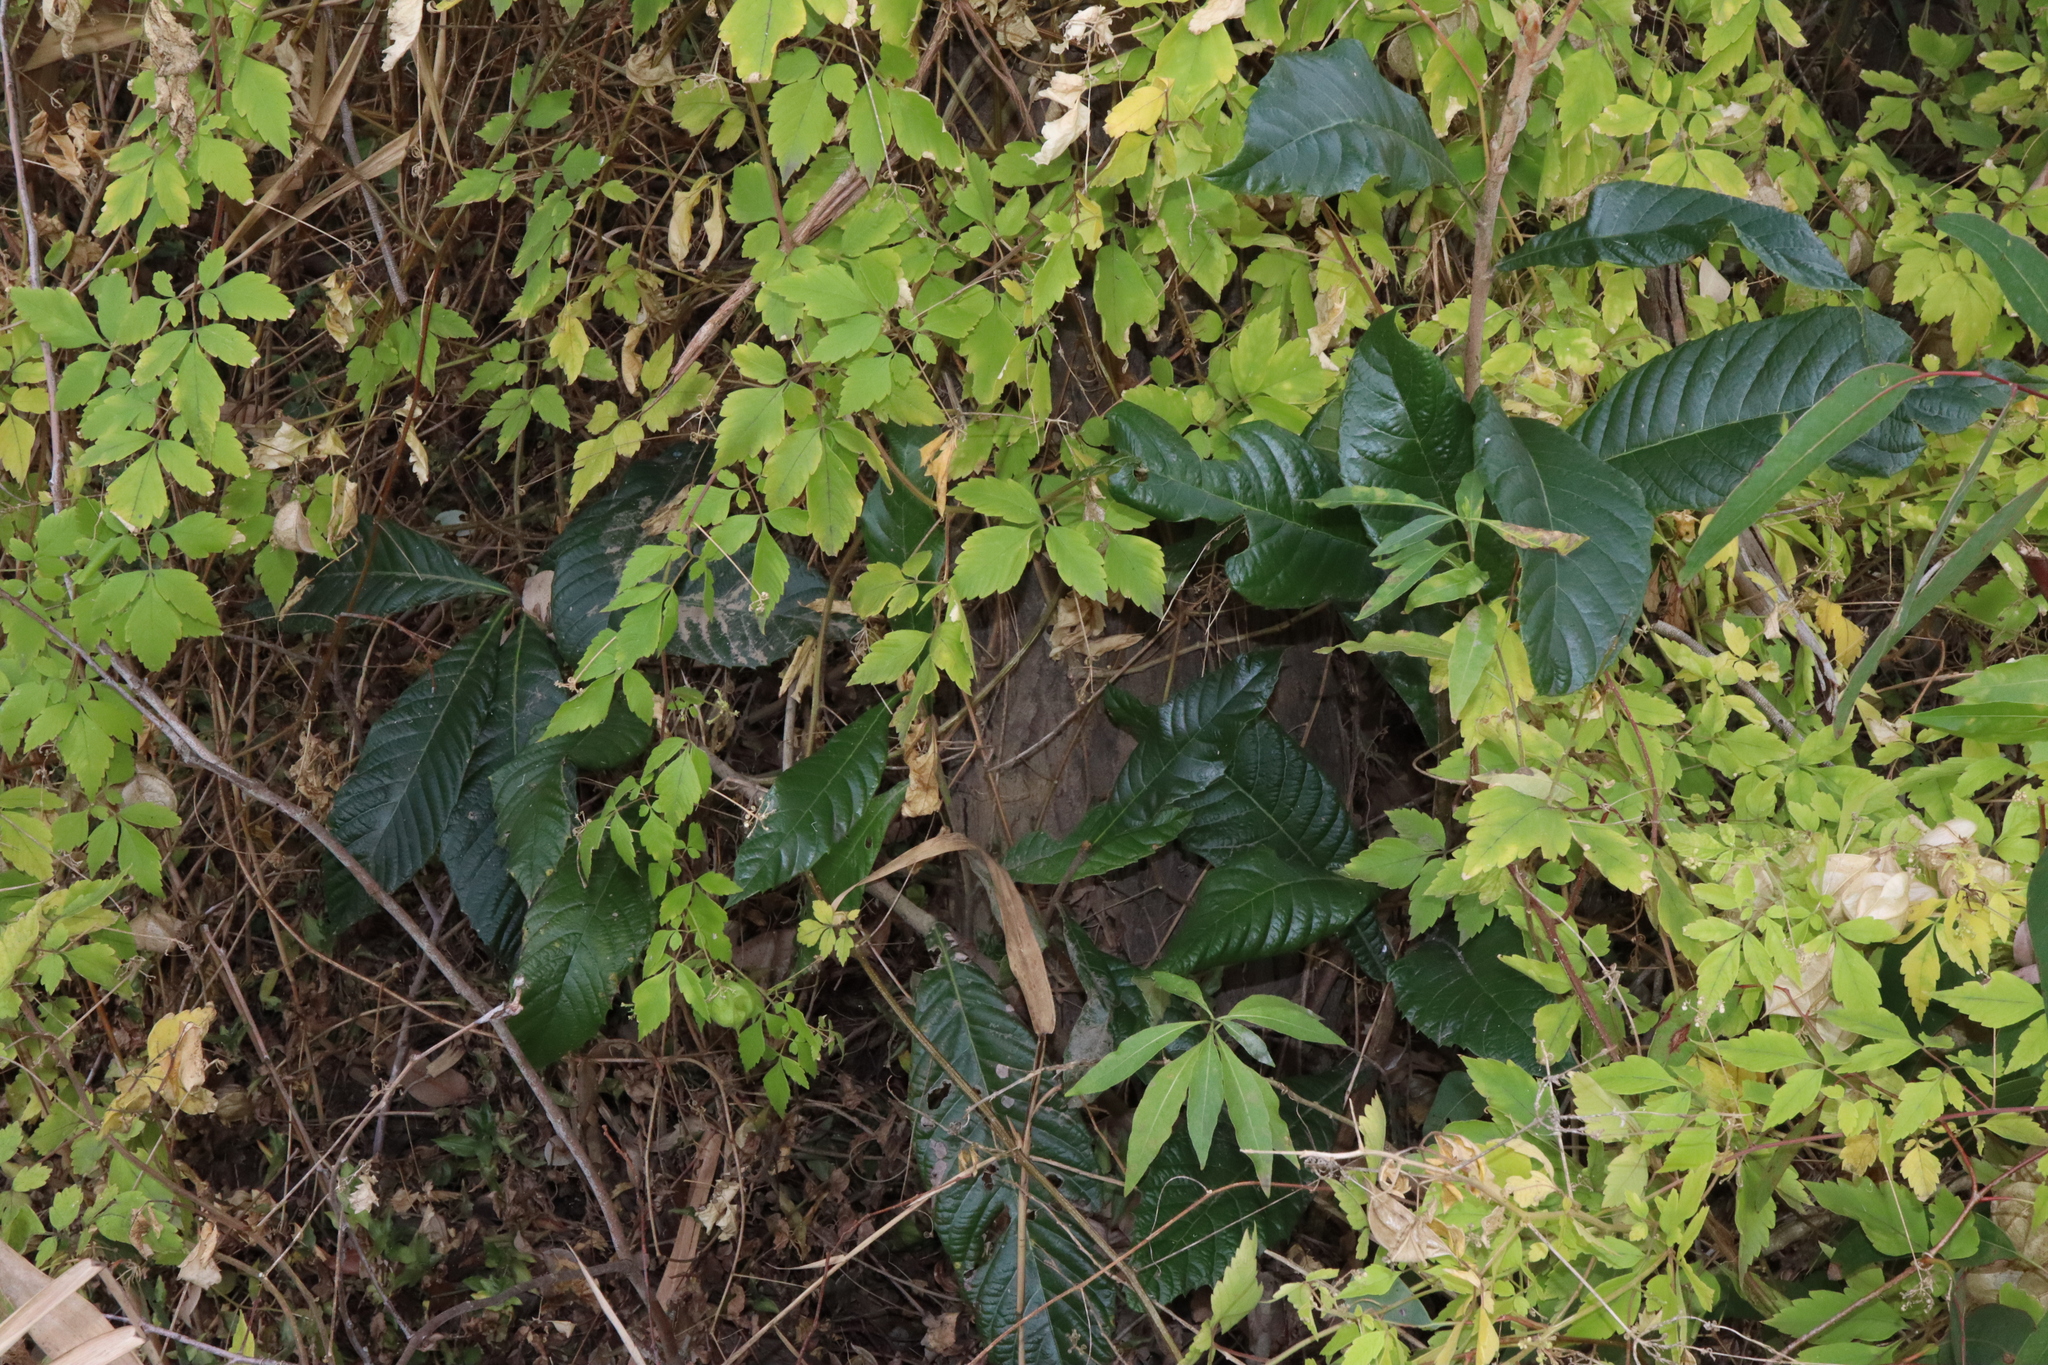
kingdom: Plantae
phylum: Tracheophyta
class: Magnoliopsida
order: Rosales
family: Rosaceae
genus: Rhaphiolepis
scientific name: Rhaphiolepis bibas
